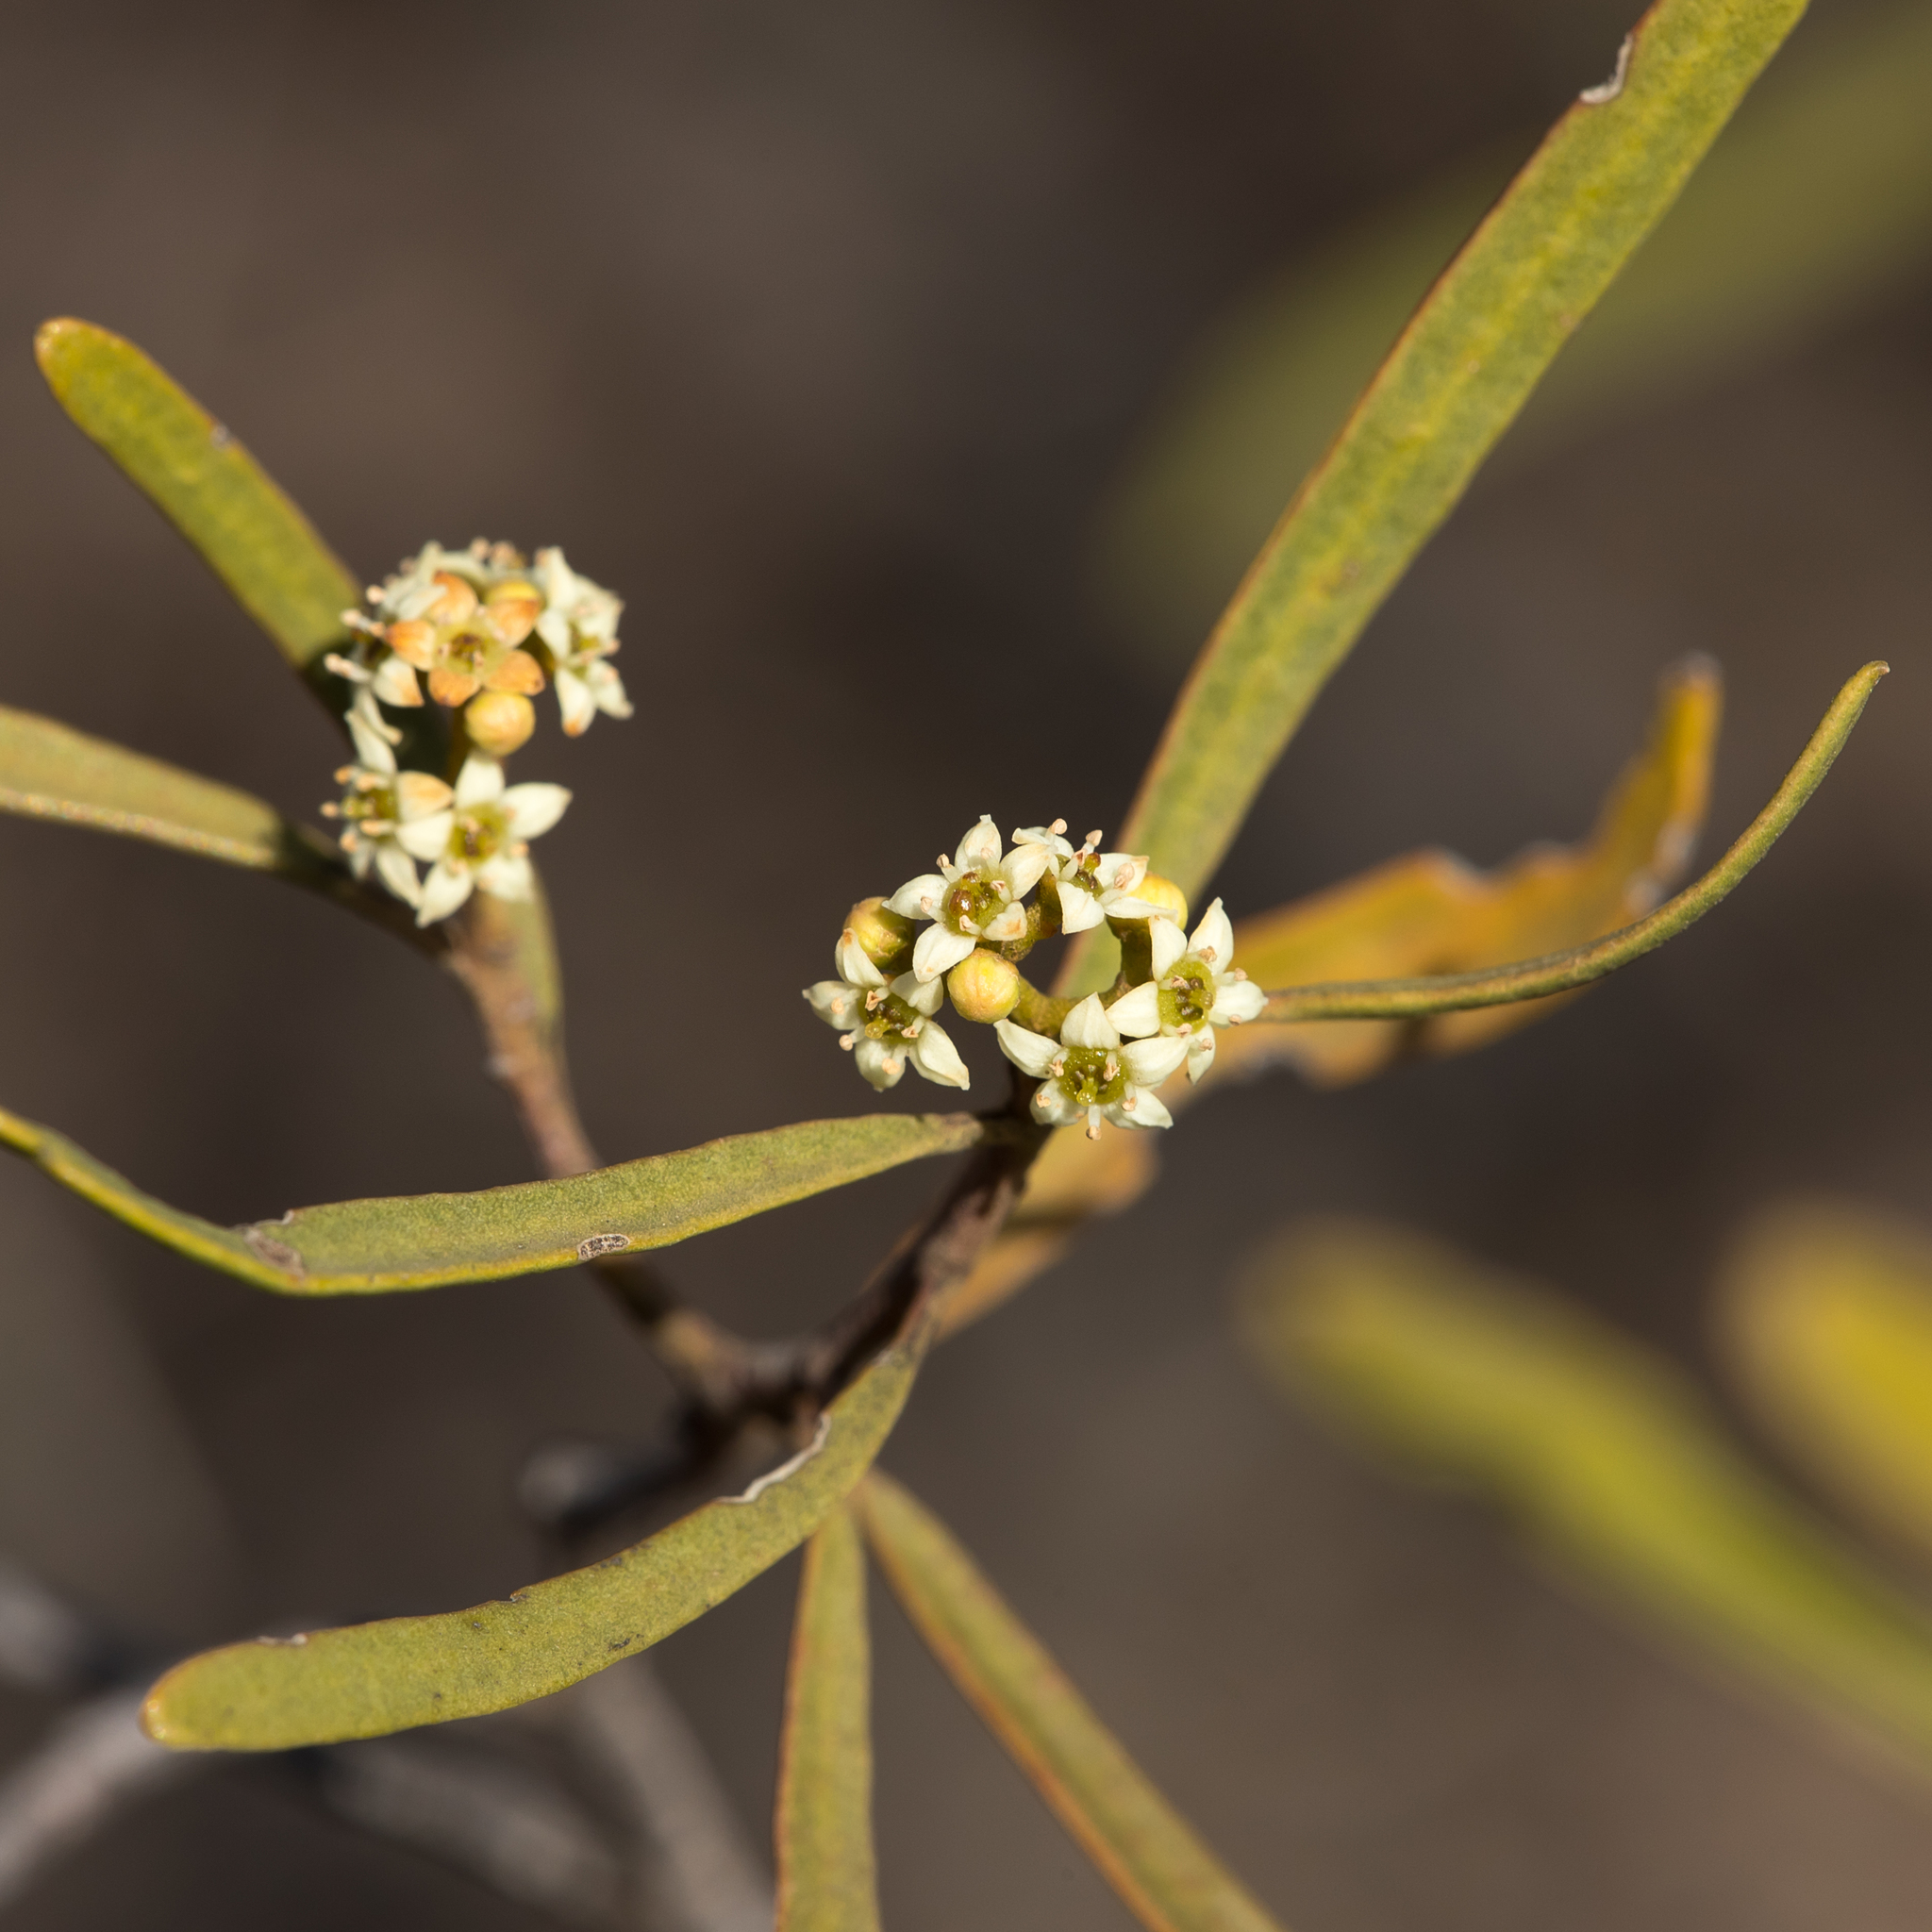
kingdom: Plantae
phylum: Tracheophyta
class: Magnoliopsida
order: Sapindales
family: Rutaceae
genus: Geijera
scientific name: Geijera linearifolia
